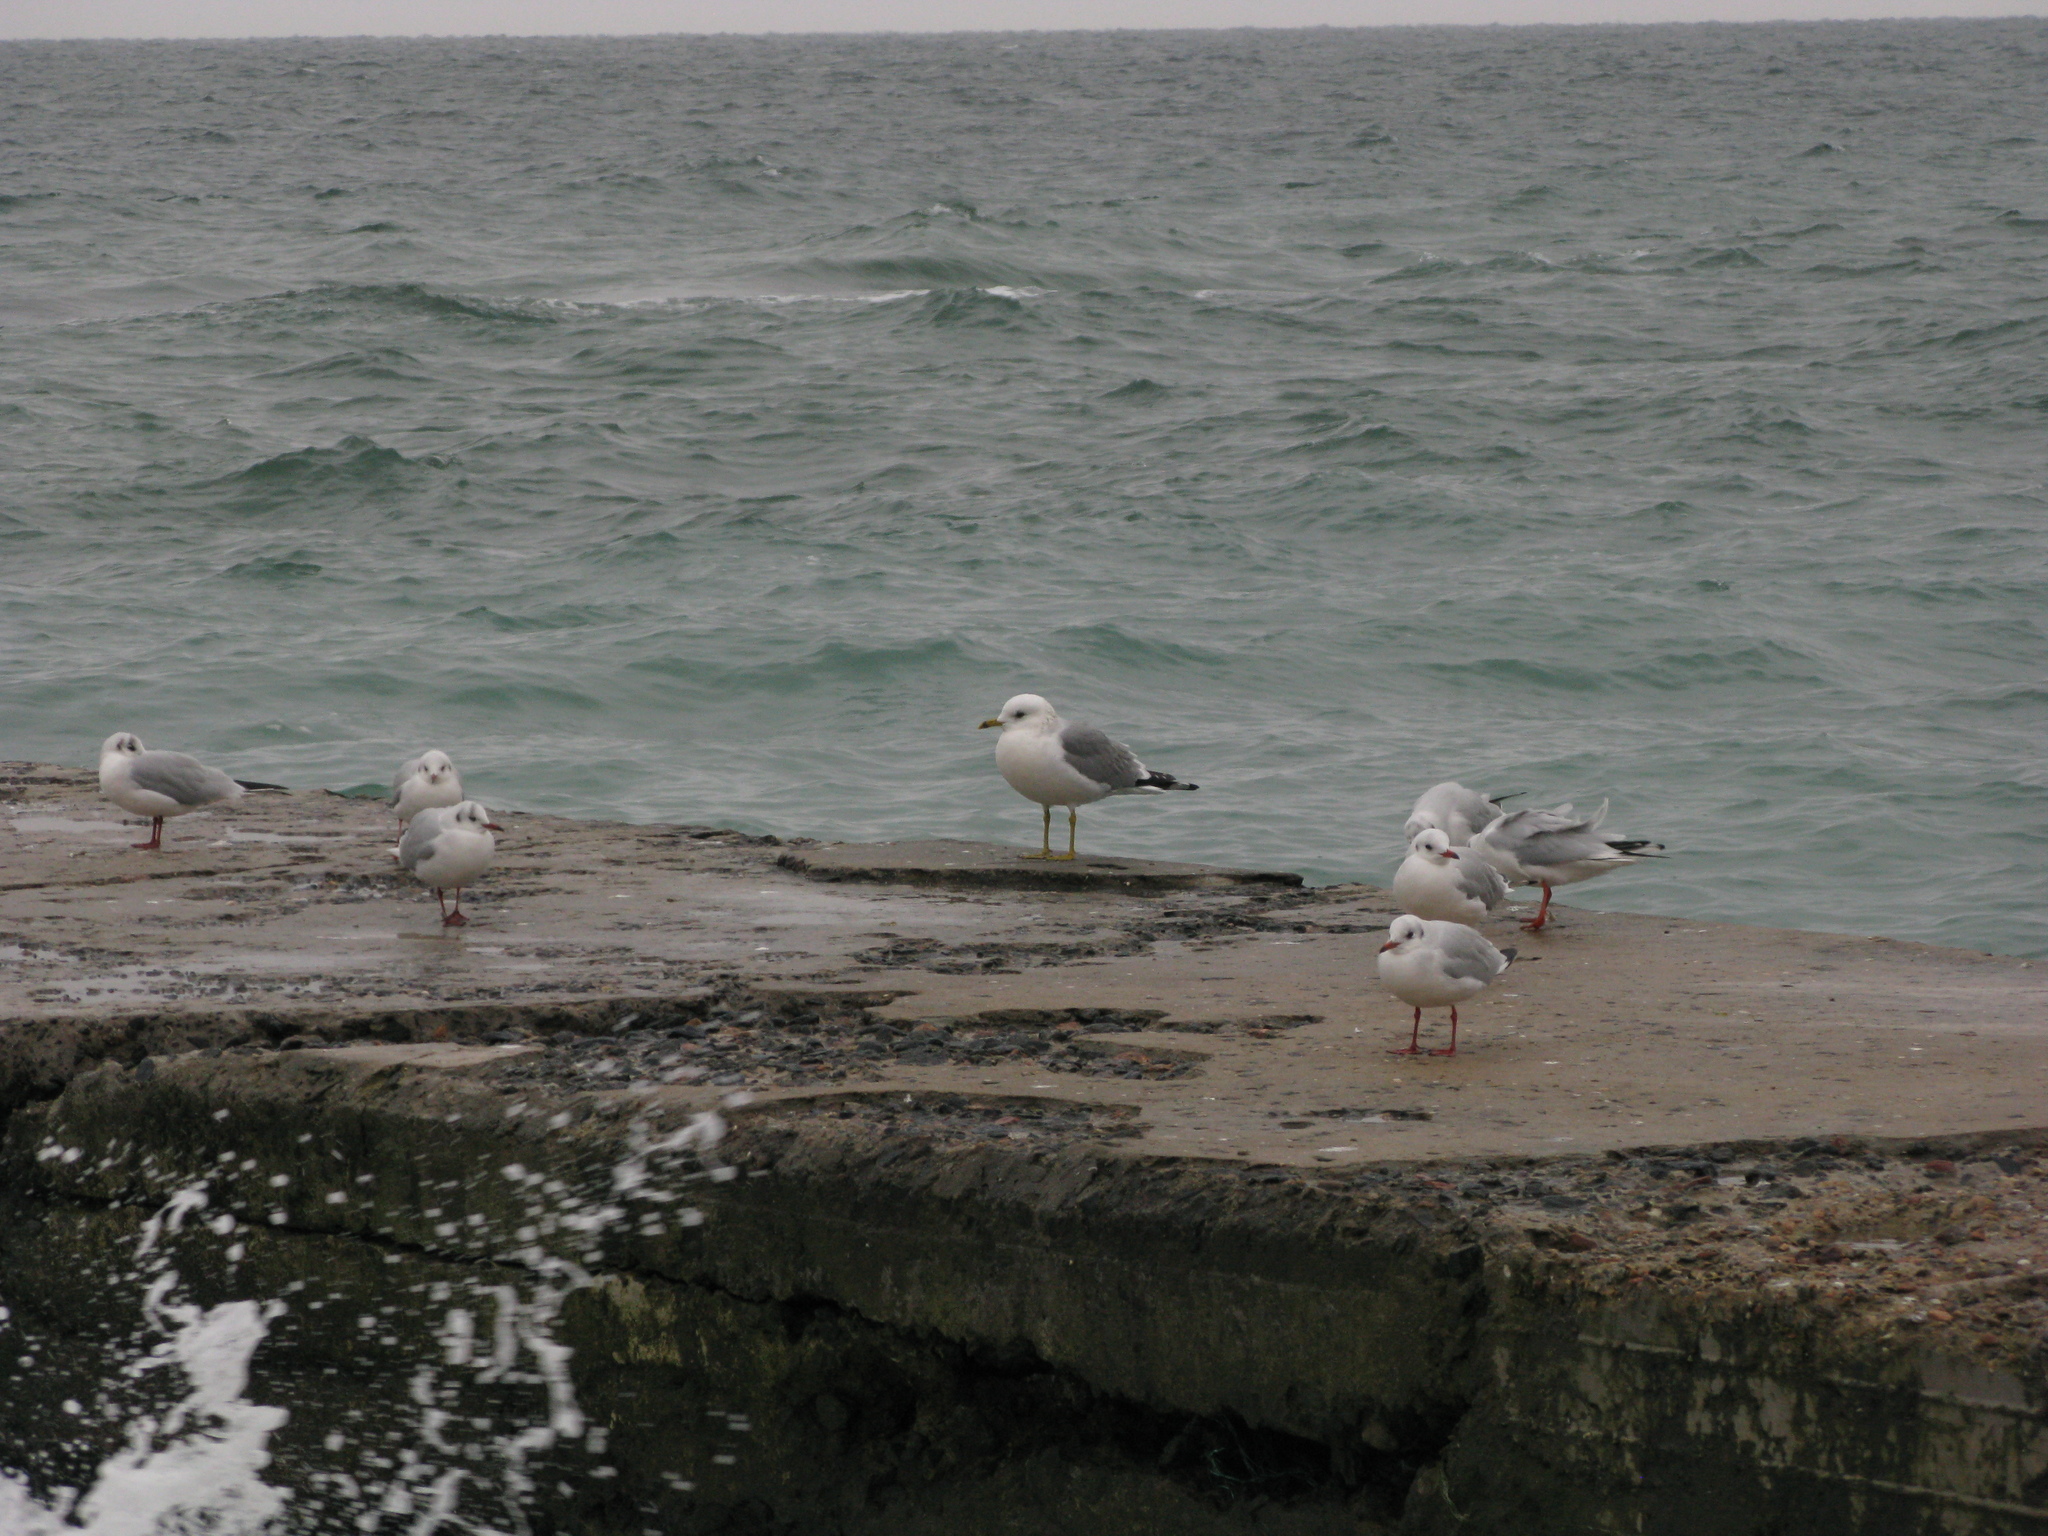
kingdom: Animalia
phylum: Chordata
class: Aves
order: Charadriiformes
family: Laridae
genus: Larus
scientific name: Larus canus
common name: Mew gull
